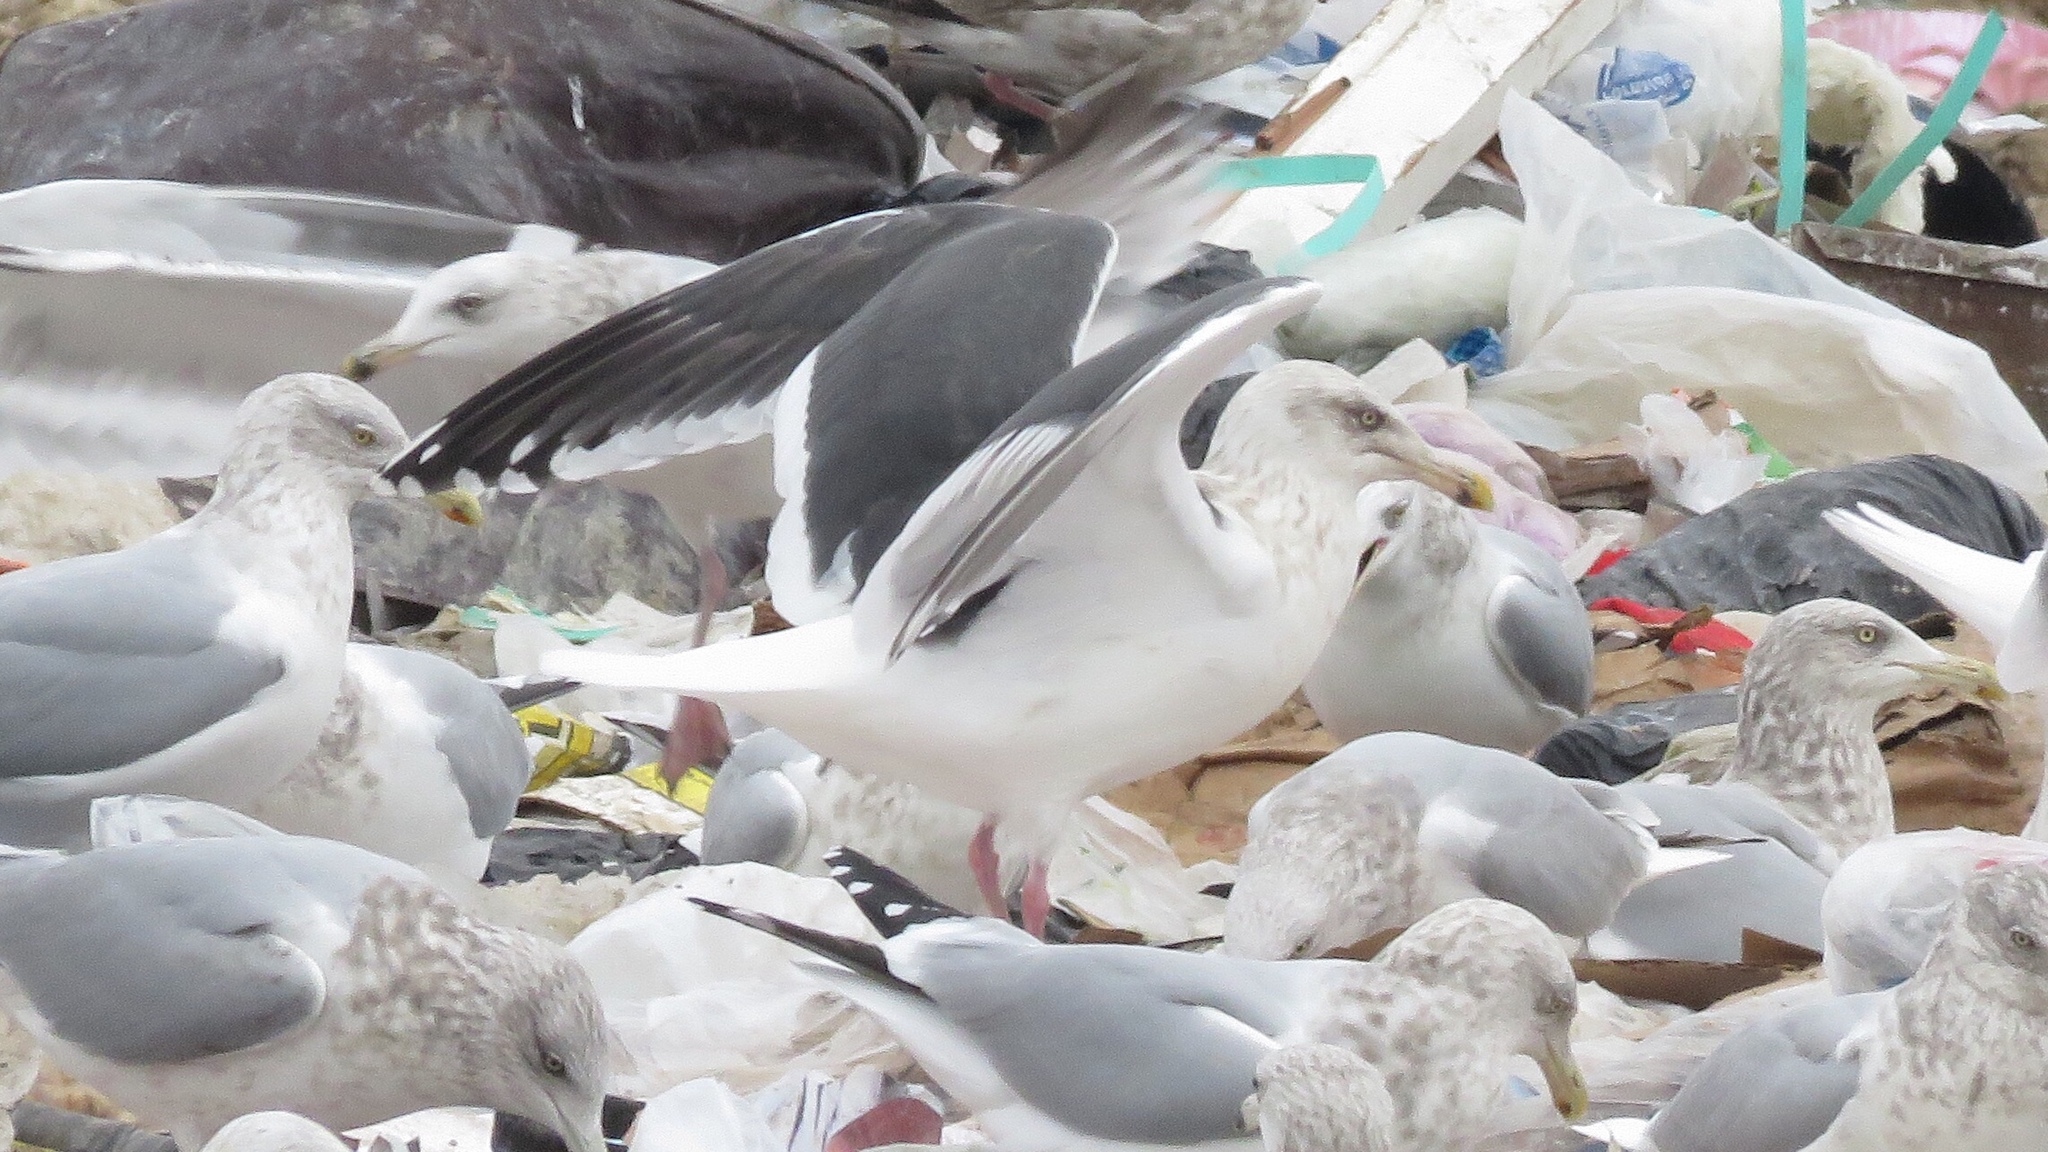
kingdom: Animalia
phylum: Chordata
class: Aves
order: Charadriiformes
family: Laridae
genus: Larus
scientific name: Larus schistisagus
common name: Slaty-backed gull
